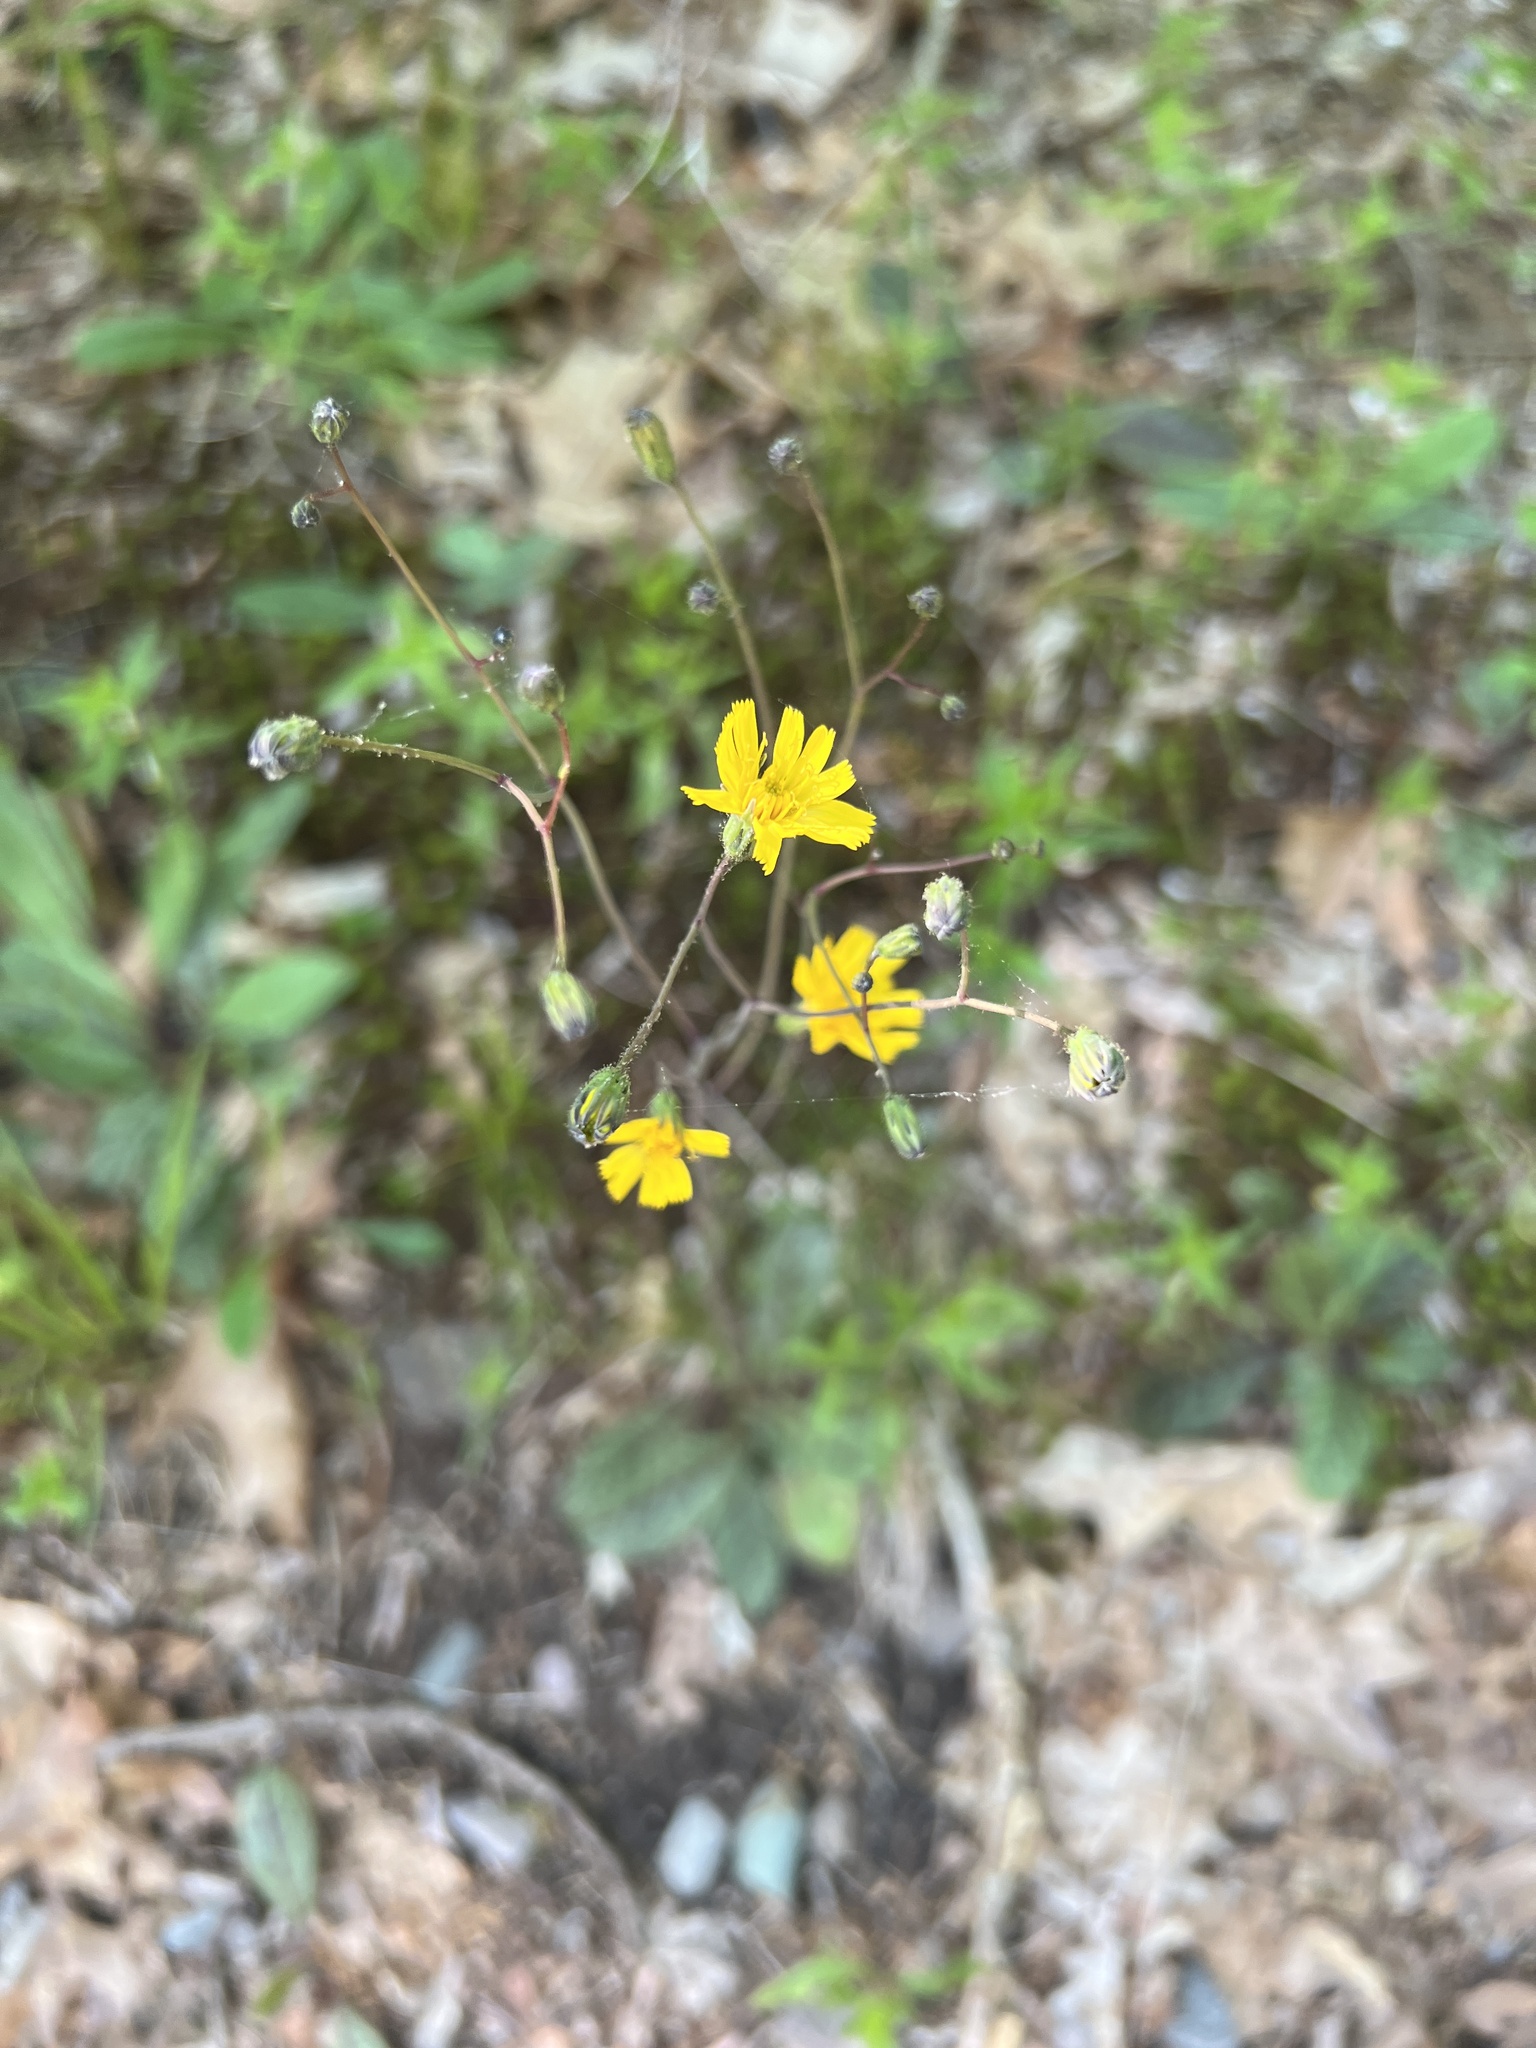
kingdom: Plantae
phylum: Tracheophyta
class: Magnoliopsida
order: Asterales
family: Asteraceae
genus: Hieracium
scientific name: Hieracium venosum
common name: Rattlesnake hawkweed
